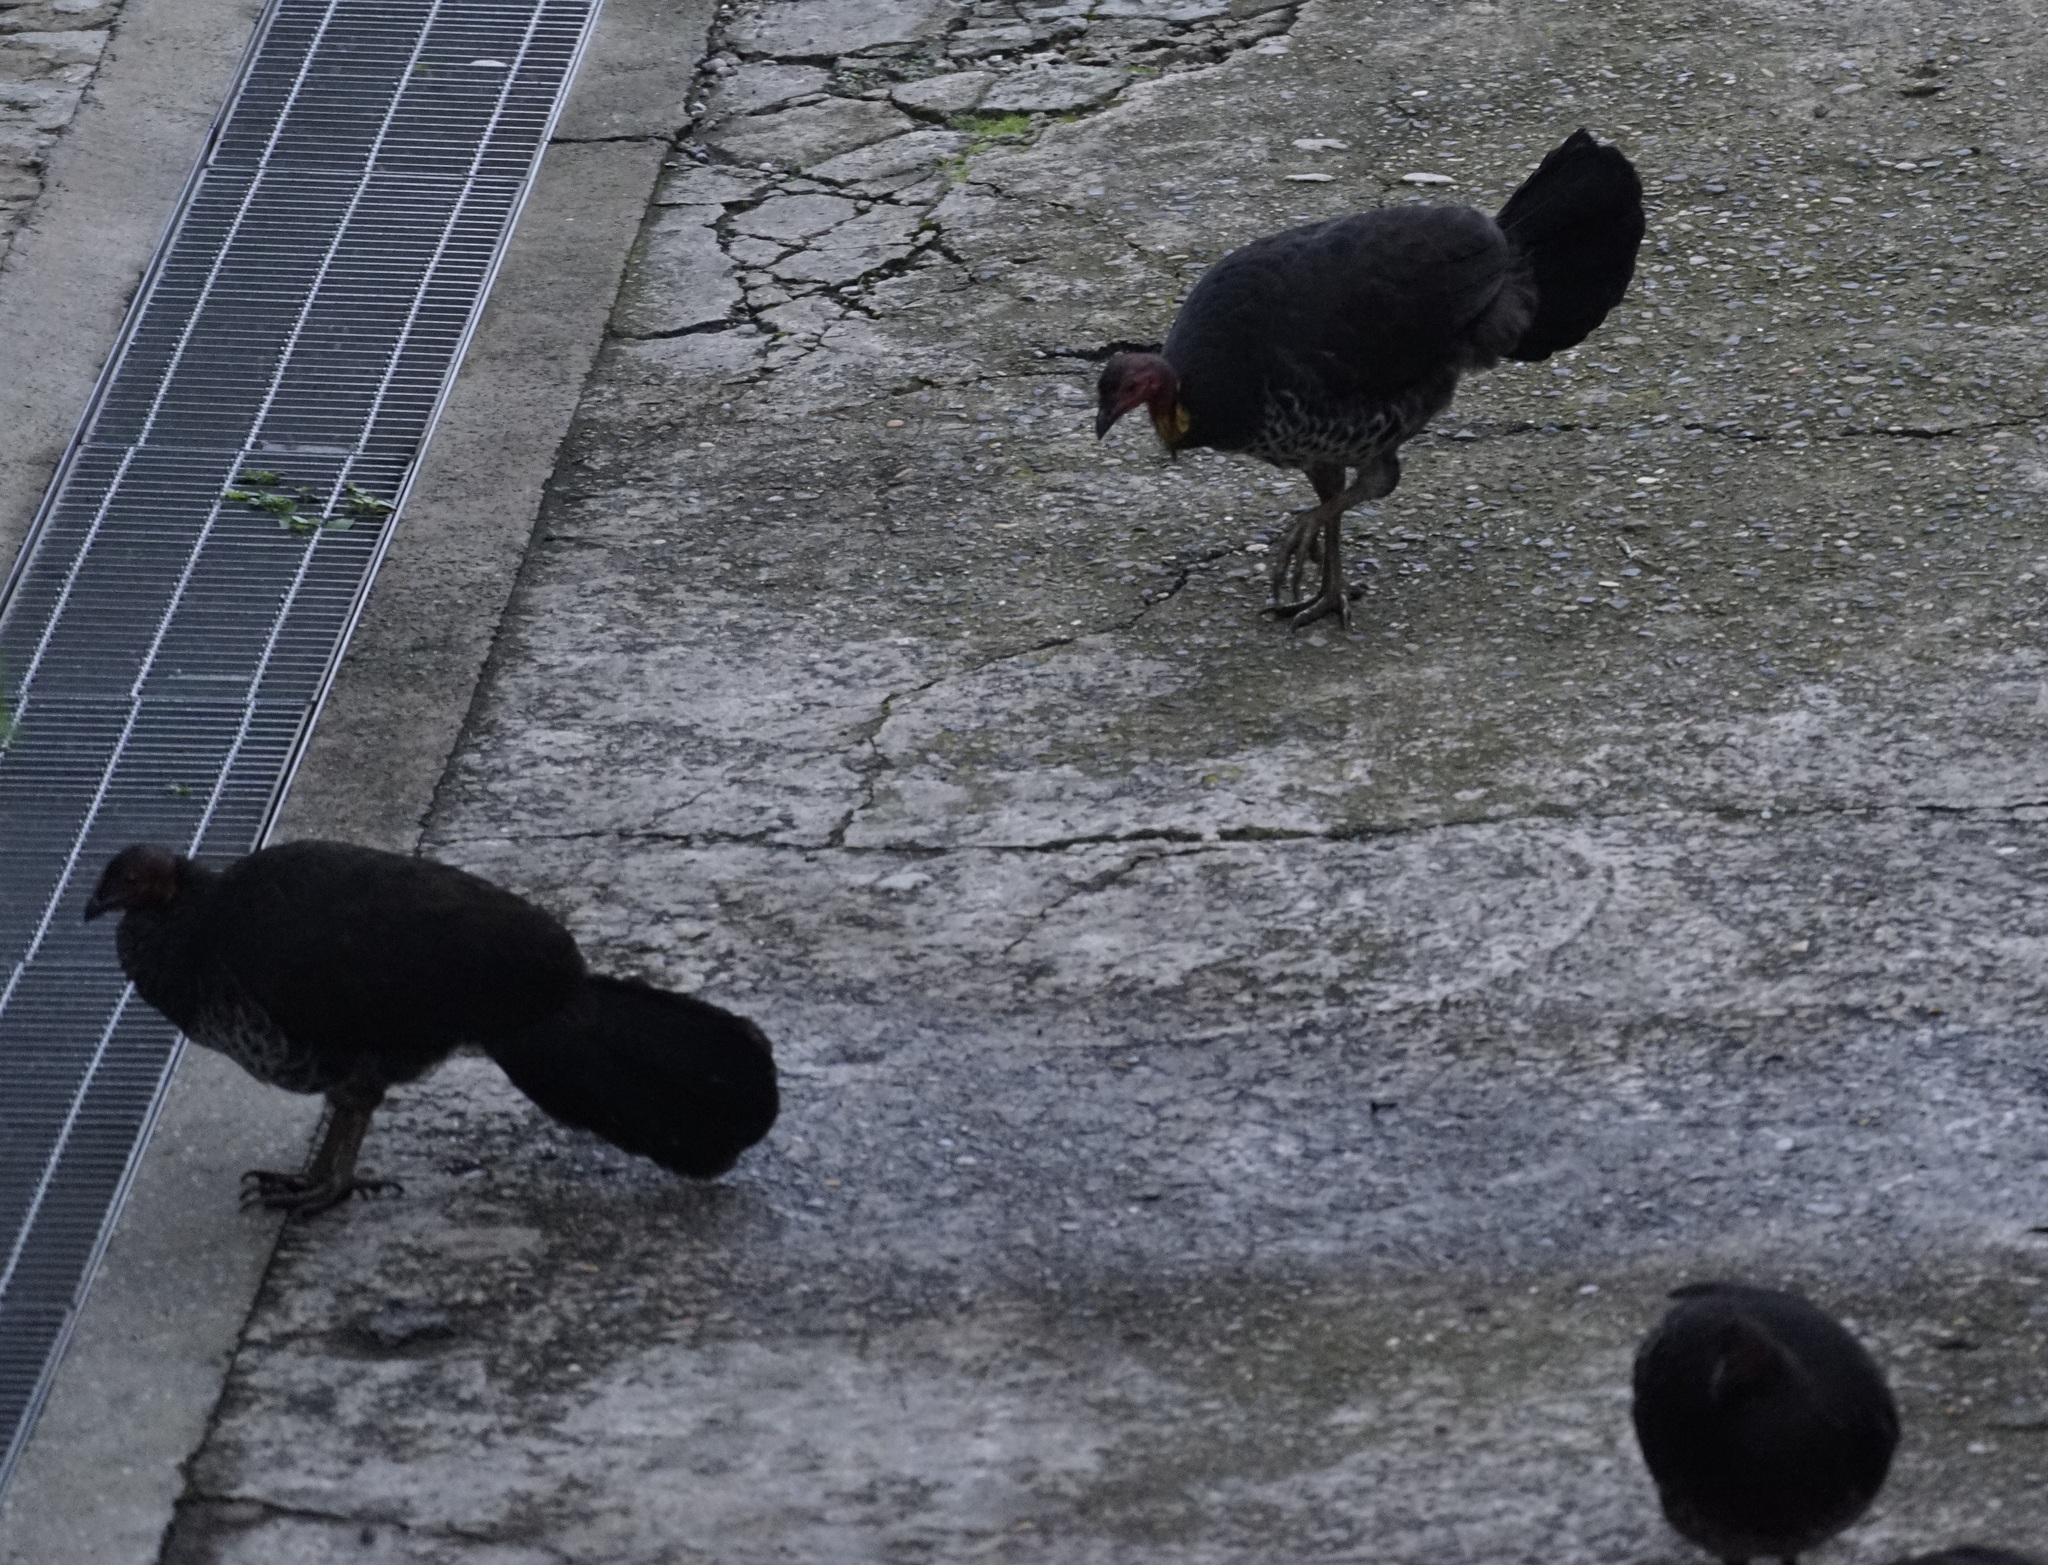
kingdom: Animalia
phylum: Chordata
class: Aves
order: Galliformes
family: Megapodiidae
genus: Alectura
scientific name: Alectura lathami
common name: Australian brushturkey
